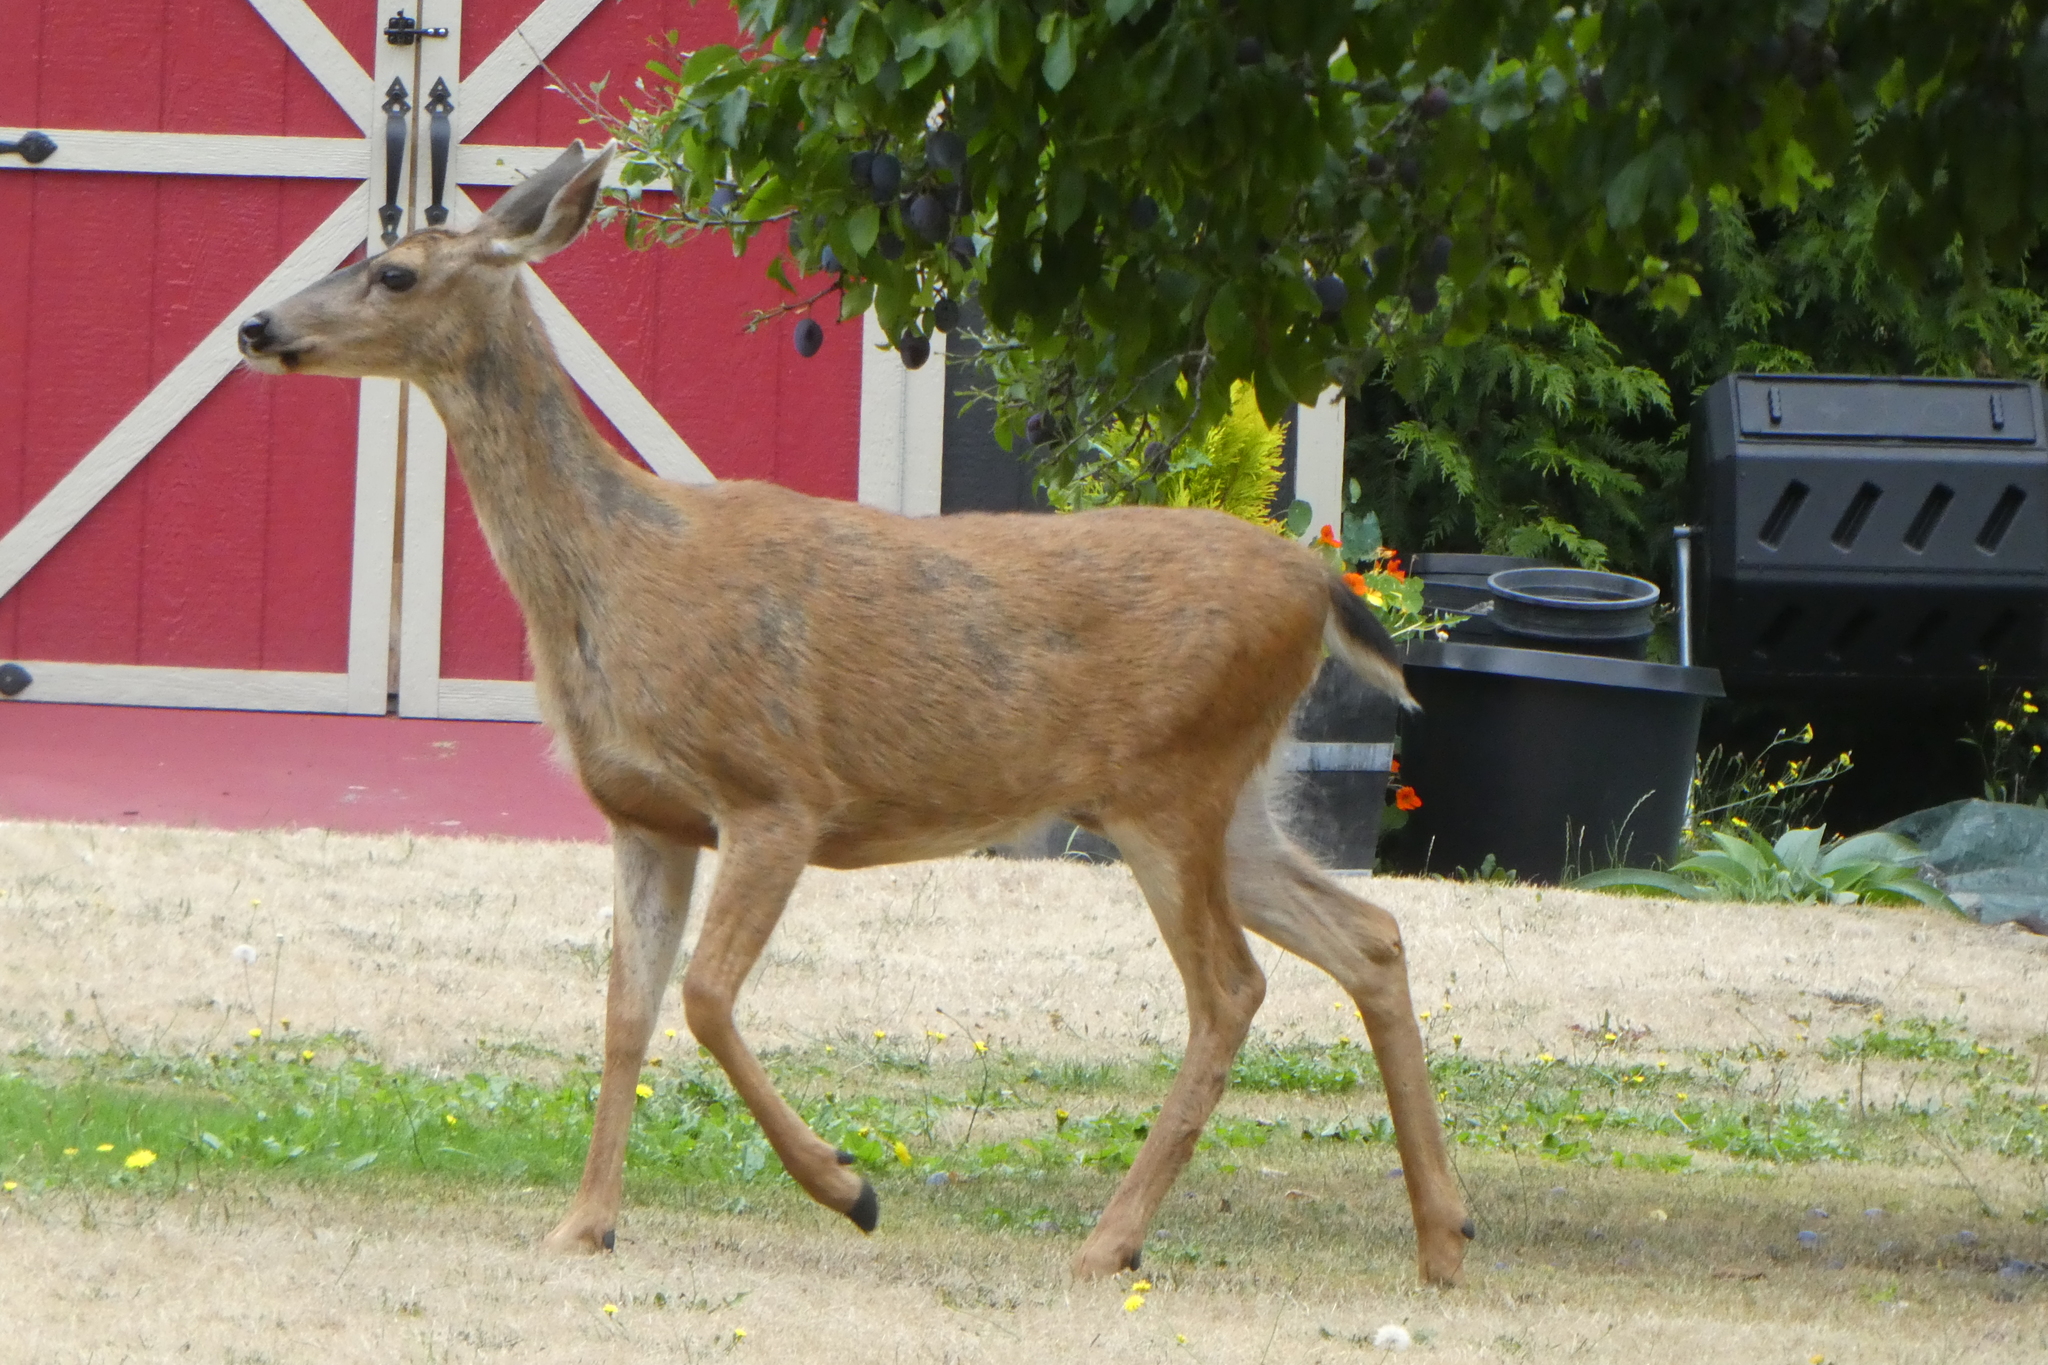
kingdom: Animalia
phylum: Chordata
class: Mammalia
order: Artiodactyla
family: Cervidae
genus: Odocoileus
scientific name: Odocoileus hemionus
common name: Mule deer
